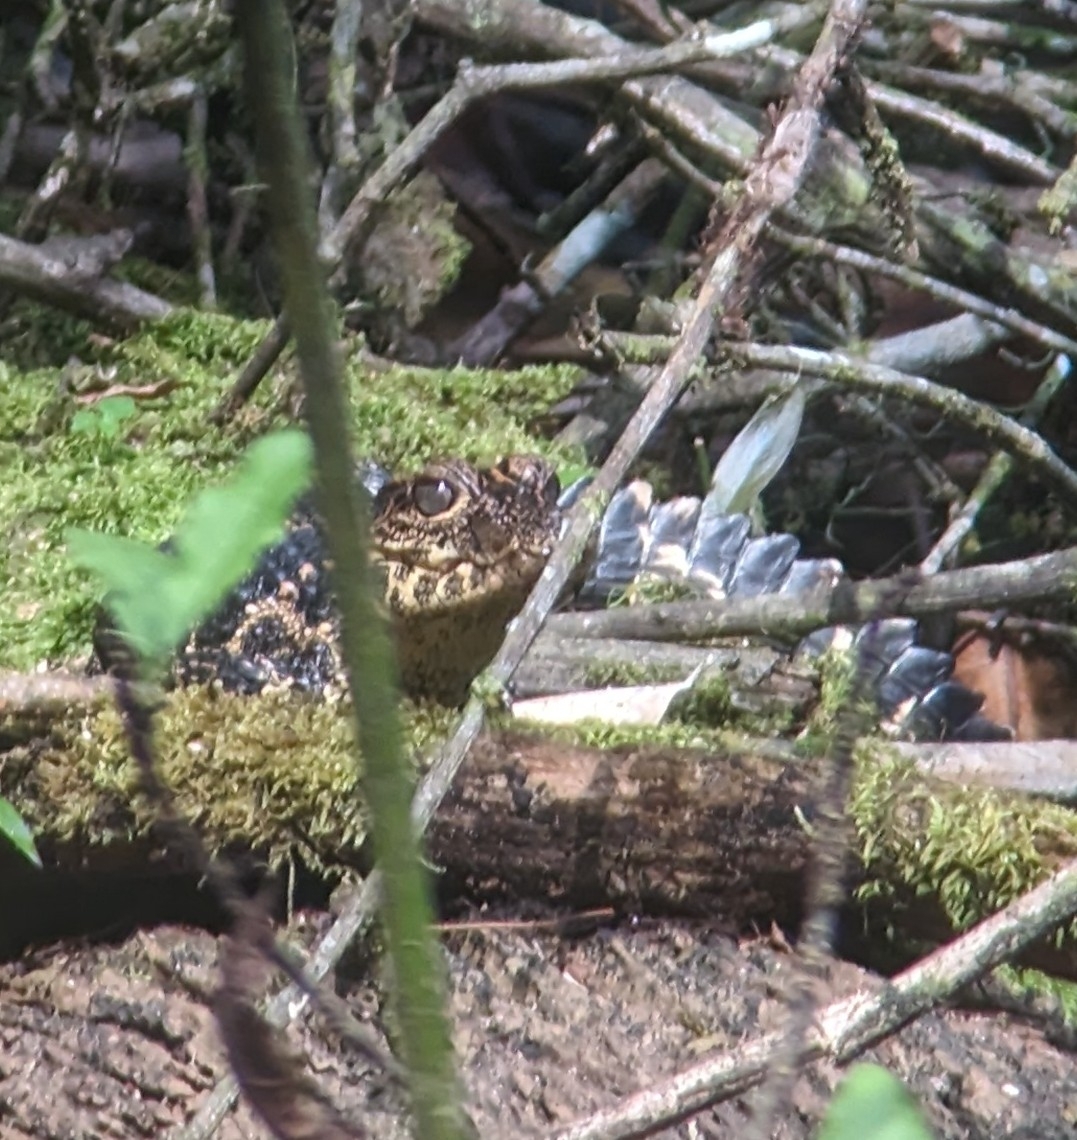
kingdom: Animalia
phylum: Chordata
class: Crocodylia
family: Crocodylidae
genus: Osteolaemus
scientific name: Osteolaemus tetraspis
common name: West african dwarf crocodile
